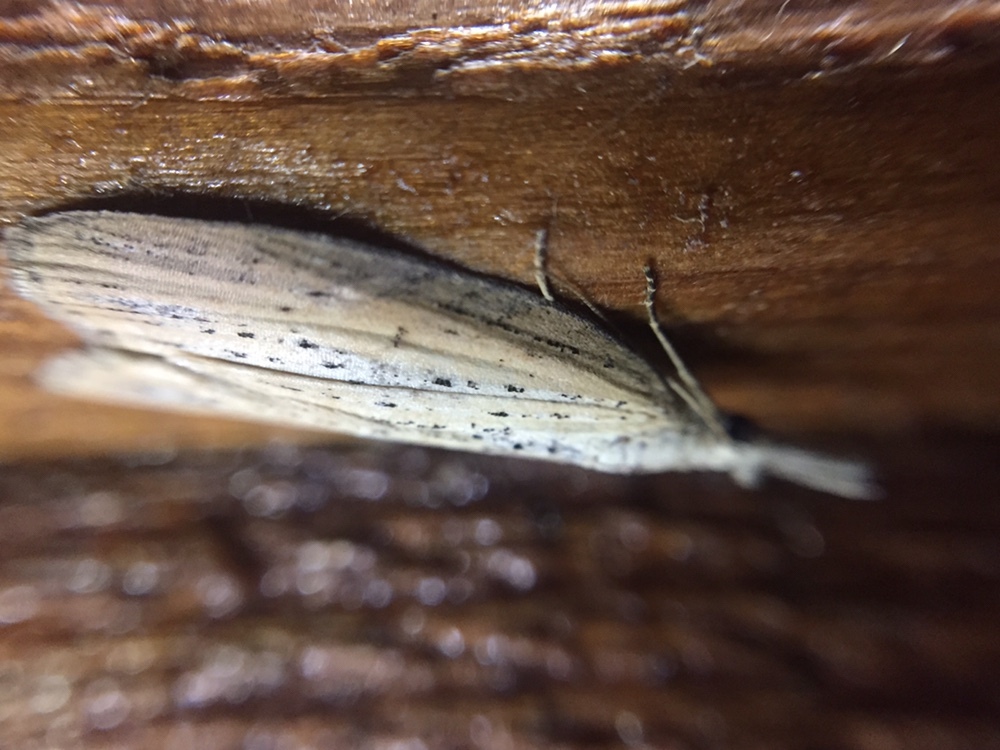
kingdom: Animalia
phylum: Arthropoda
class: Insecta
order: Lepidoptera
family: Geometridae
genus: Microdes
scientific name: Microdes epicryptis
